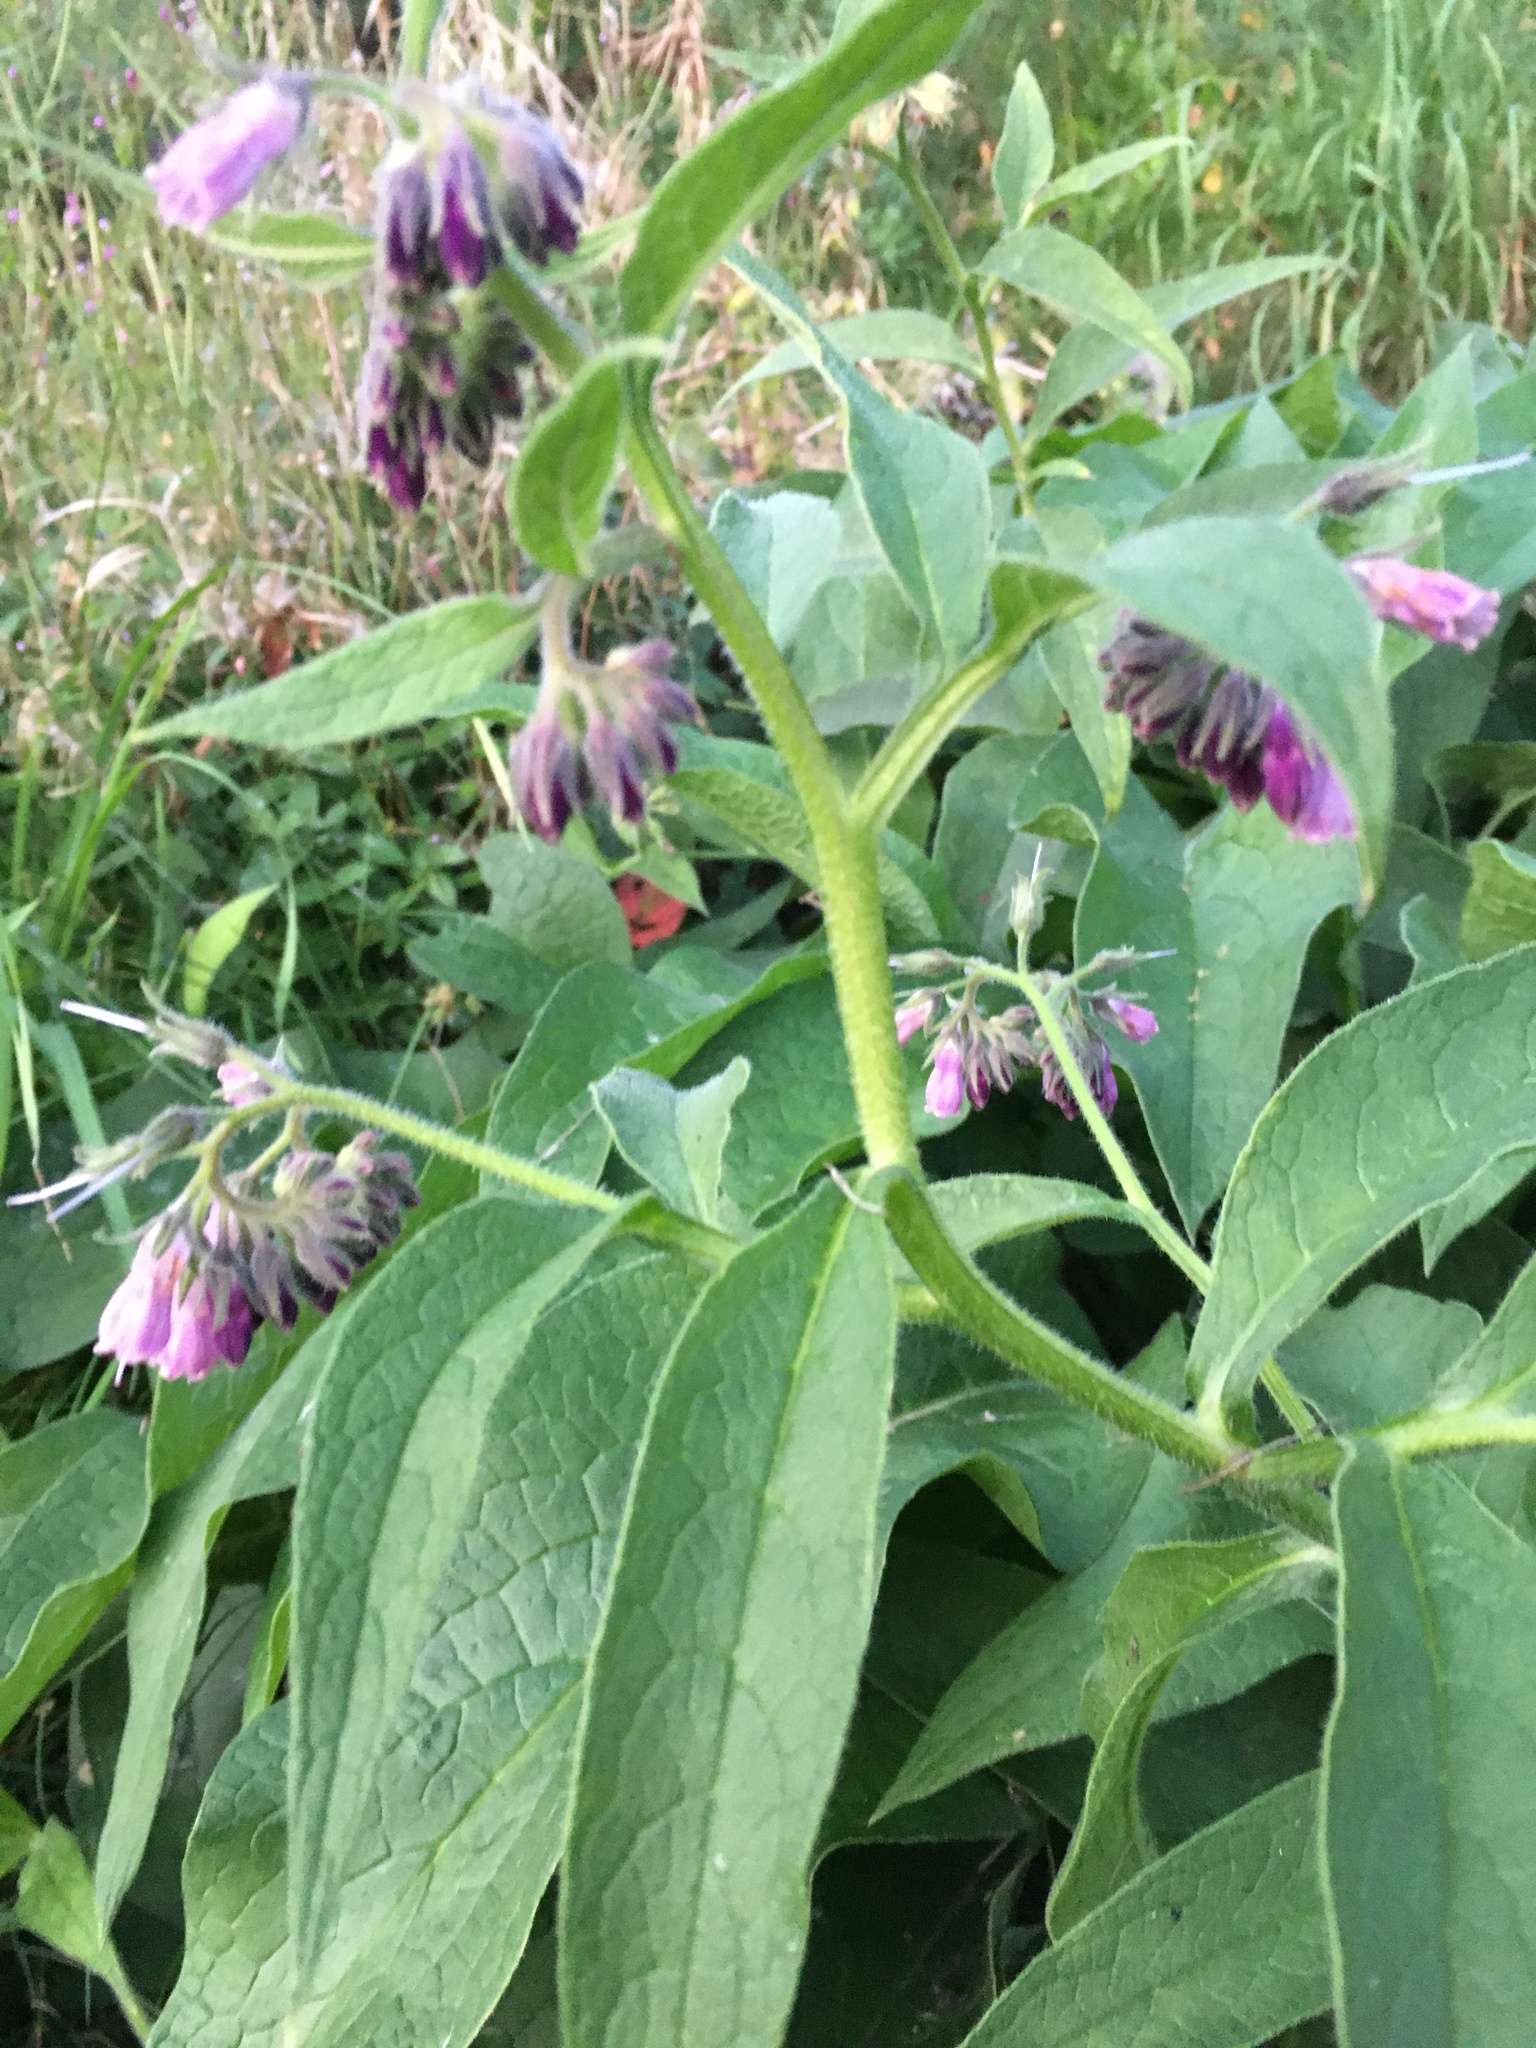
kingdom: Plantae
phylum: Tracheophyta
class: Magnoliopsida
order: Boraginales
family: Boraginaceae
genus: Symphytum
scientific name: Symphytum officinale
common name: Common comfrey
